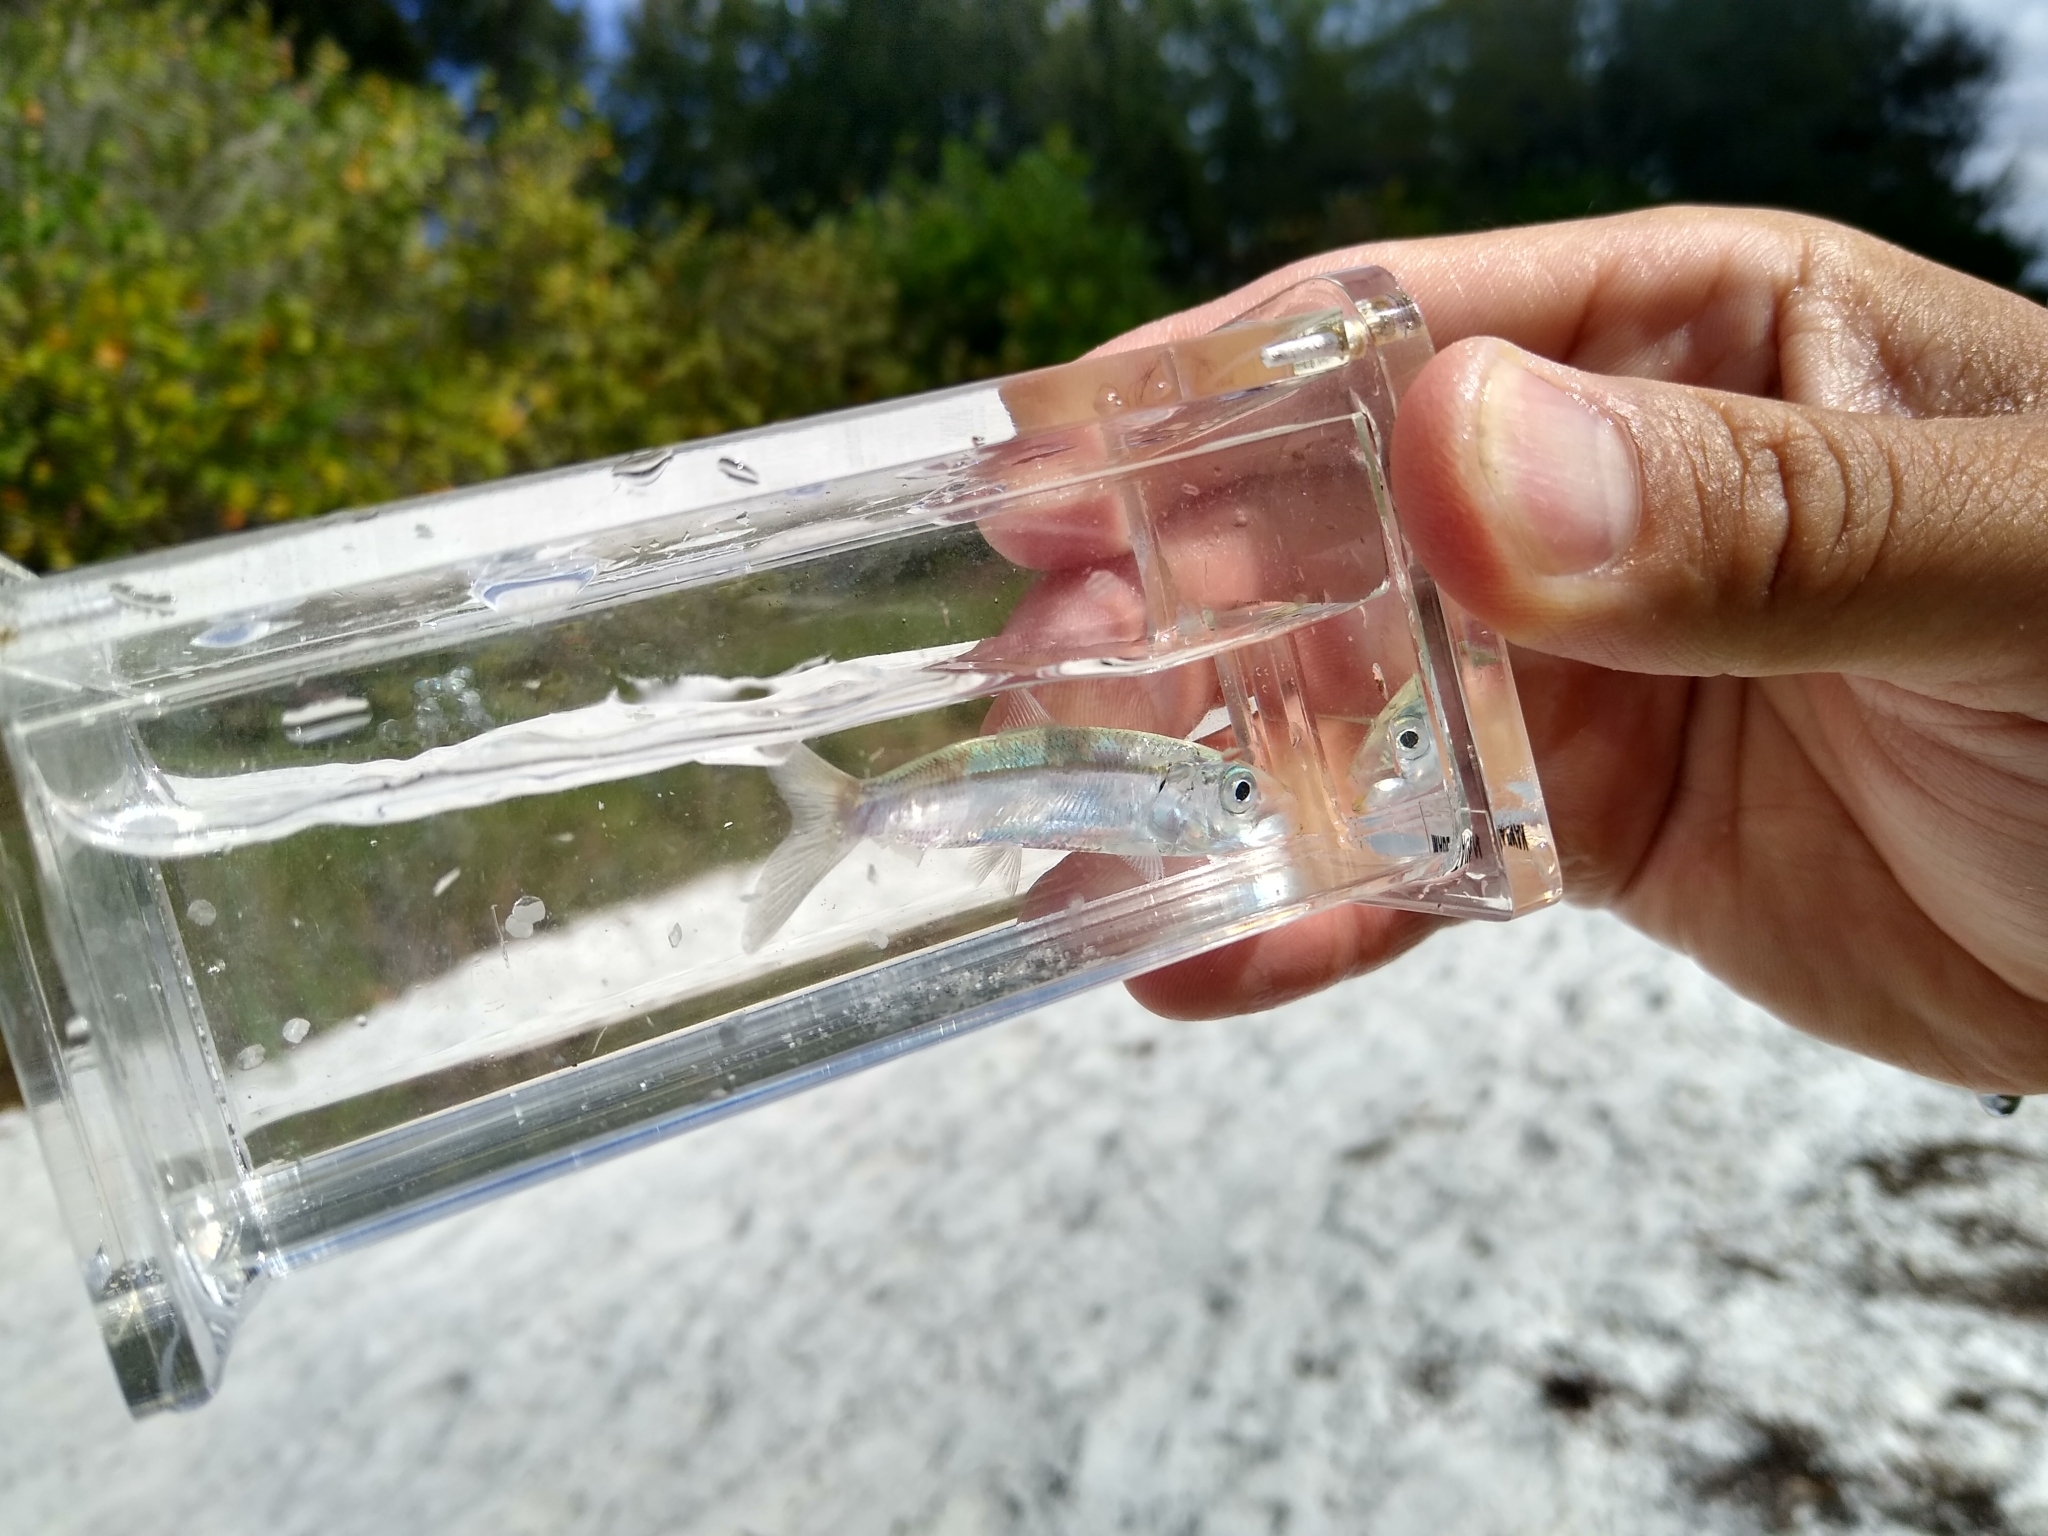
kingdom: Animalia
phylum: Chordata
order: Clupeiformes
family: Clupeidae
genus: Sardinella
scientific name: Sardinella aurita
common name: Round sardinella
